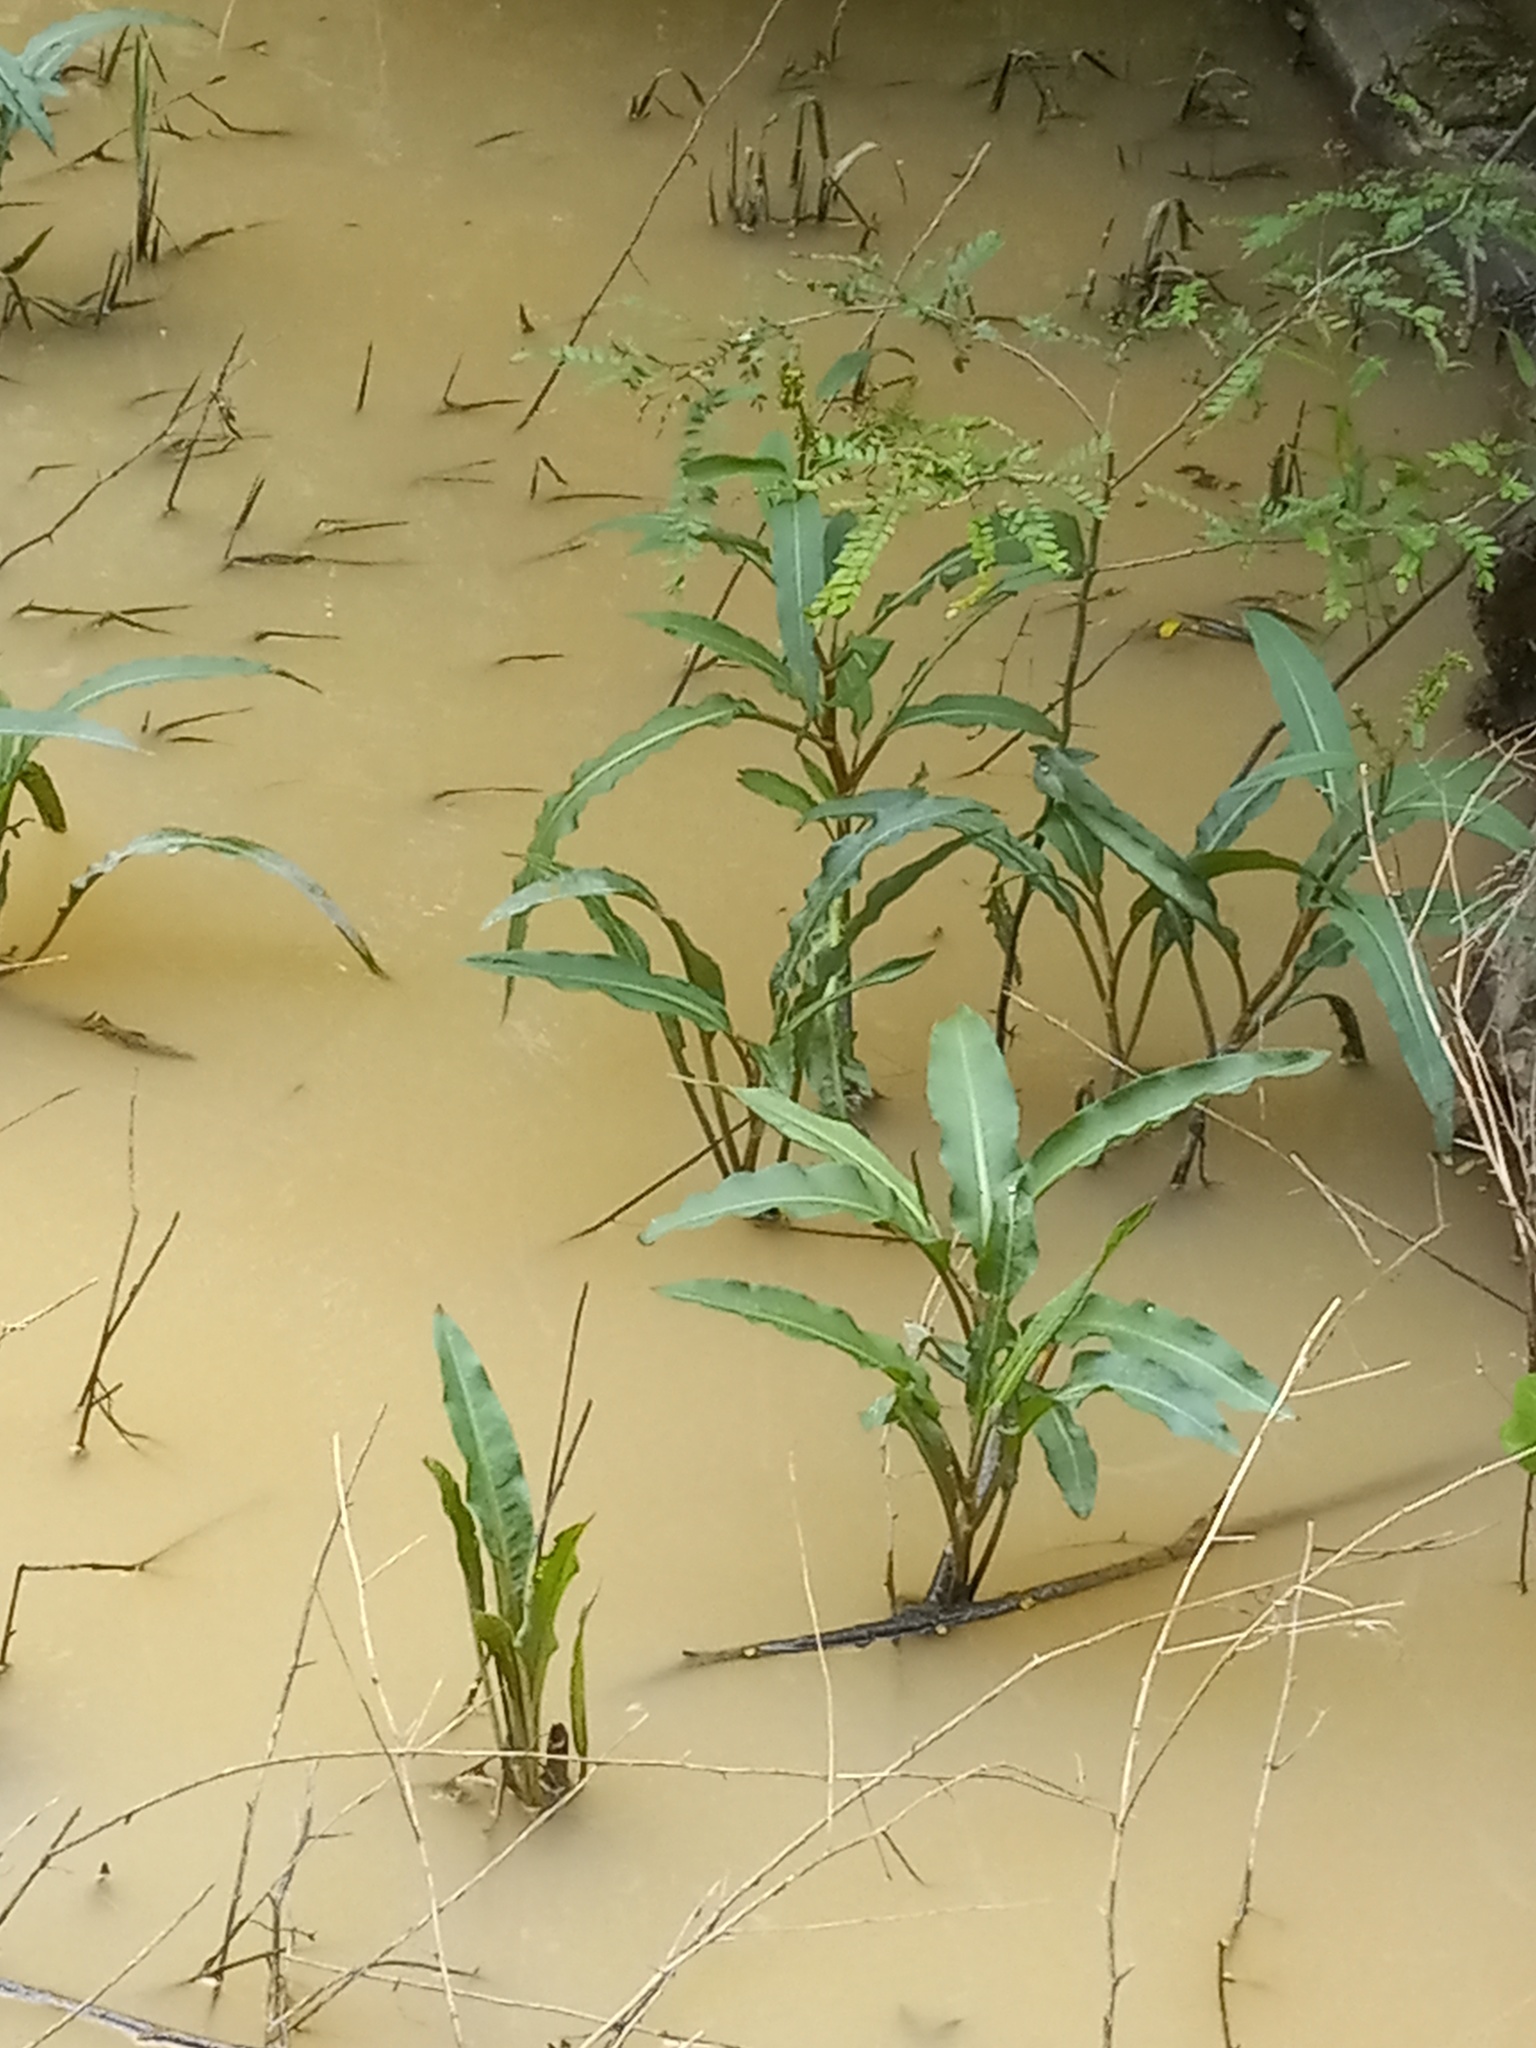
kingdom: Plantae
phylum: Tracheophyta
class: Magnoliopsida
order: Caryophyllales
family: Polygonaceae
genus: Rumex
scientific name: Rumex verticillatus
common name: Swamp dock
